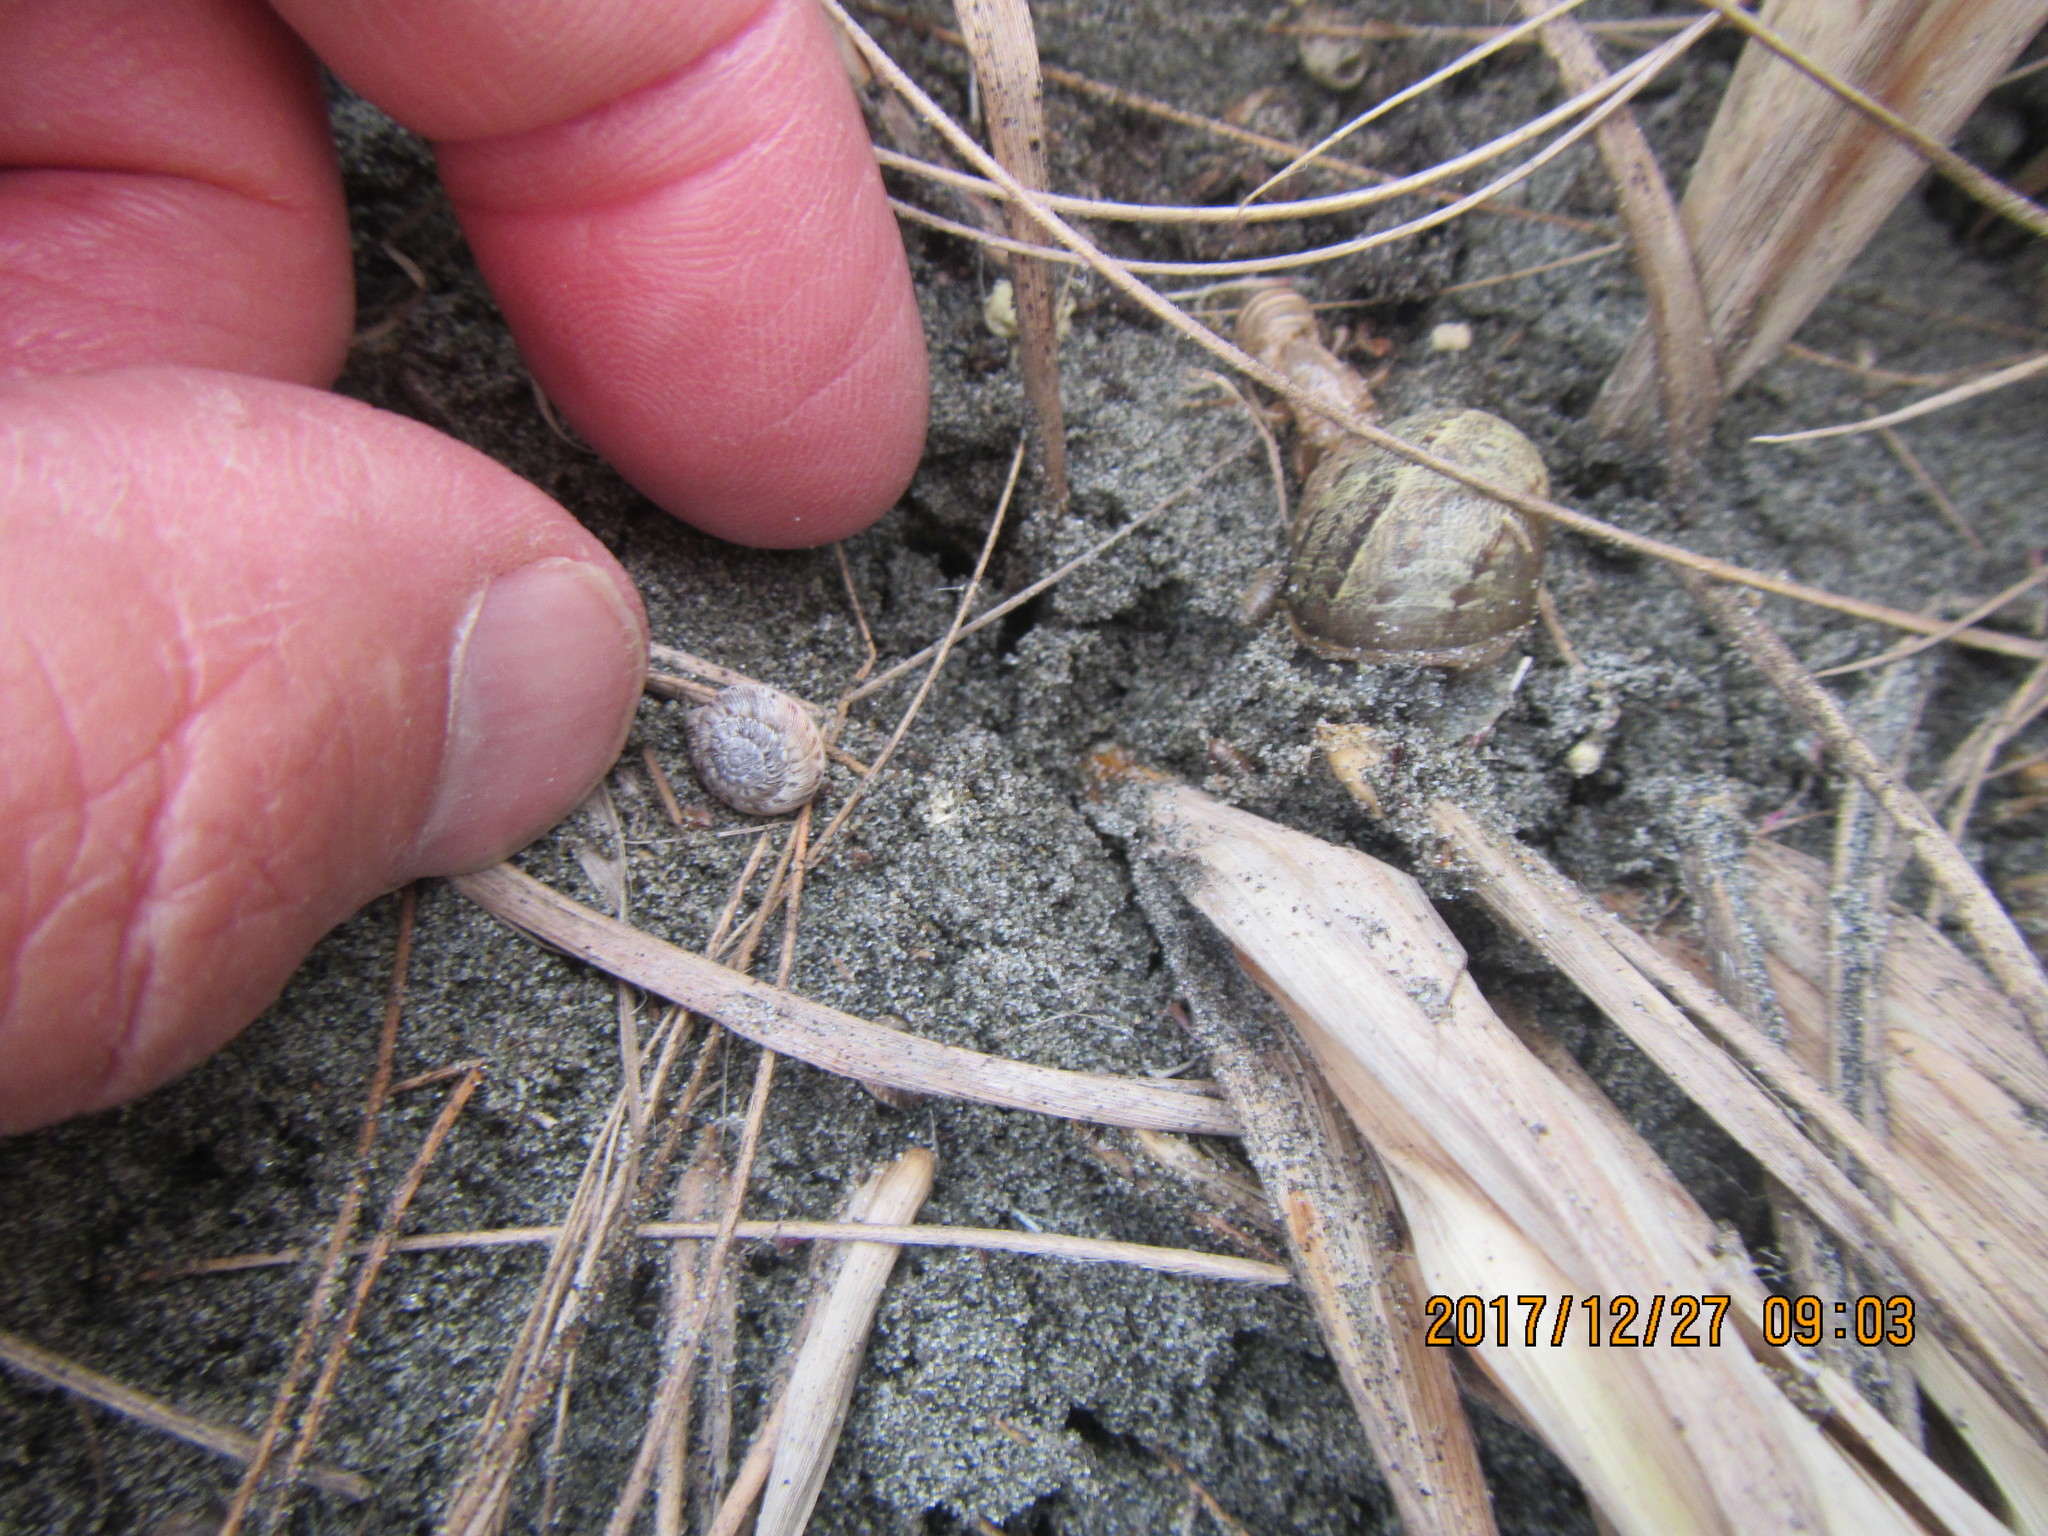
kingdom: Animalia
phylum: Mollusca
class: Gastropoda
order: Stylommatophora
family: Geomitridae
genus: Xeroplexa
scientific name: Xeroplexa intersecta
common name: Wrinkled snail
